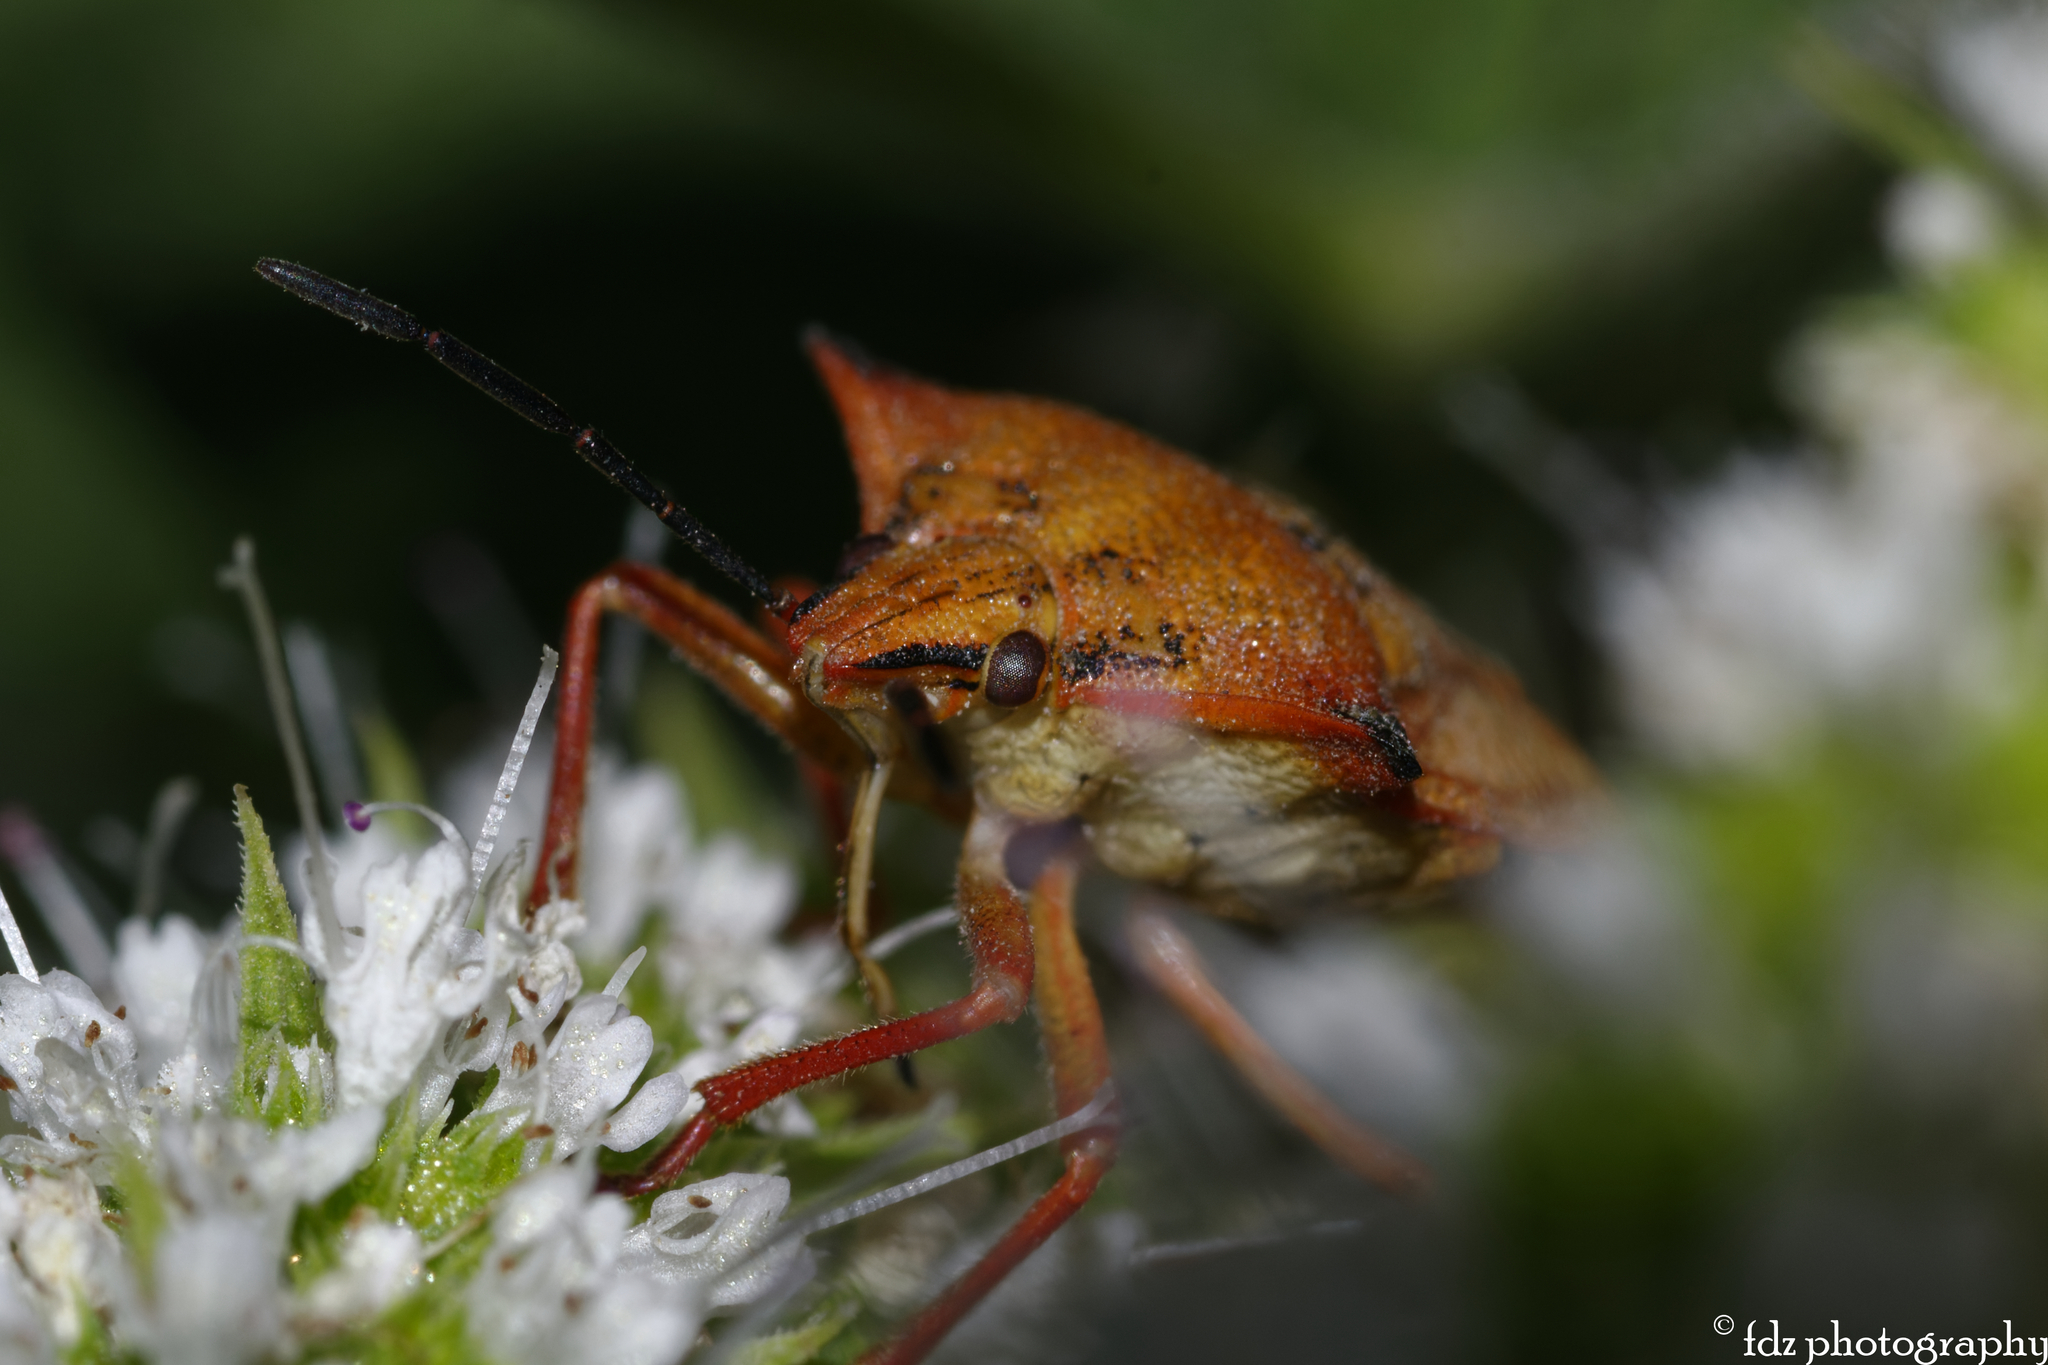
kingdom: Animalia
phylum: Arthropoda
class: Insecta
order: Hemiptera
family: Pentatomidae
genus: Carpocoris
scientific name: Carpocoris mediterraneus
